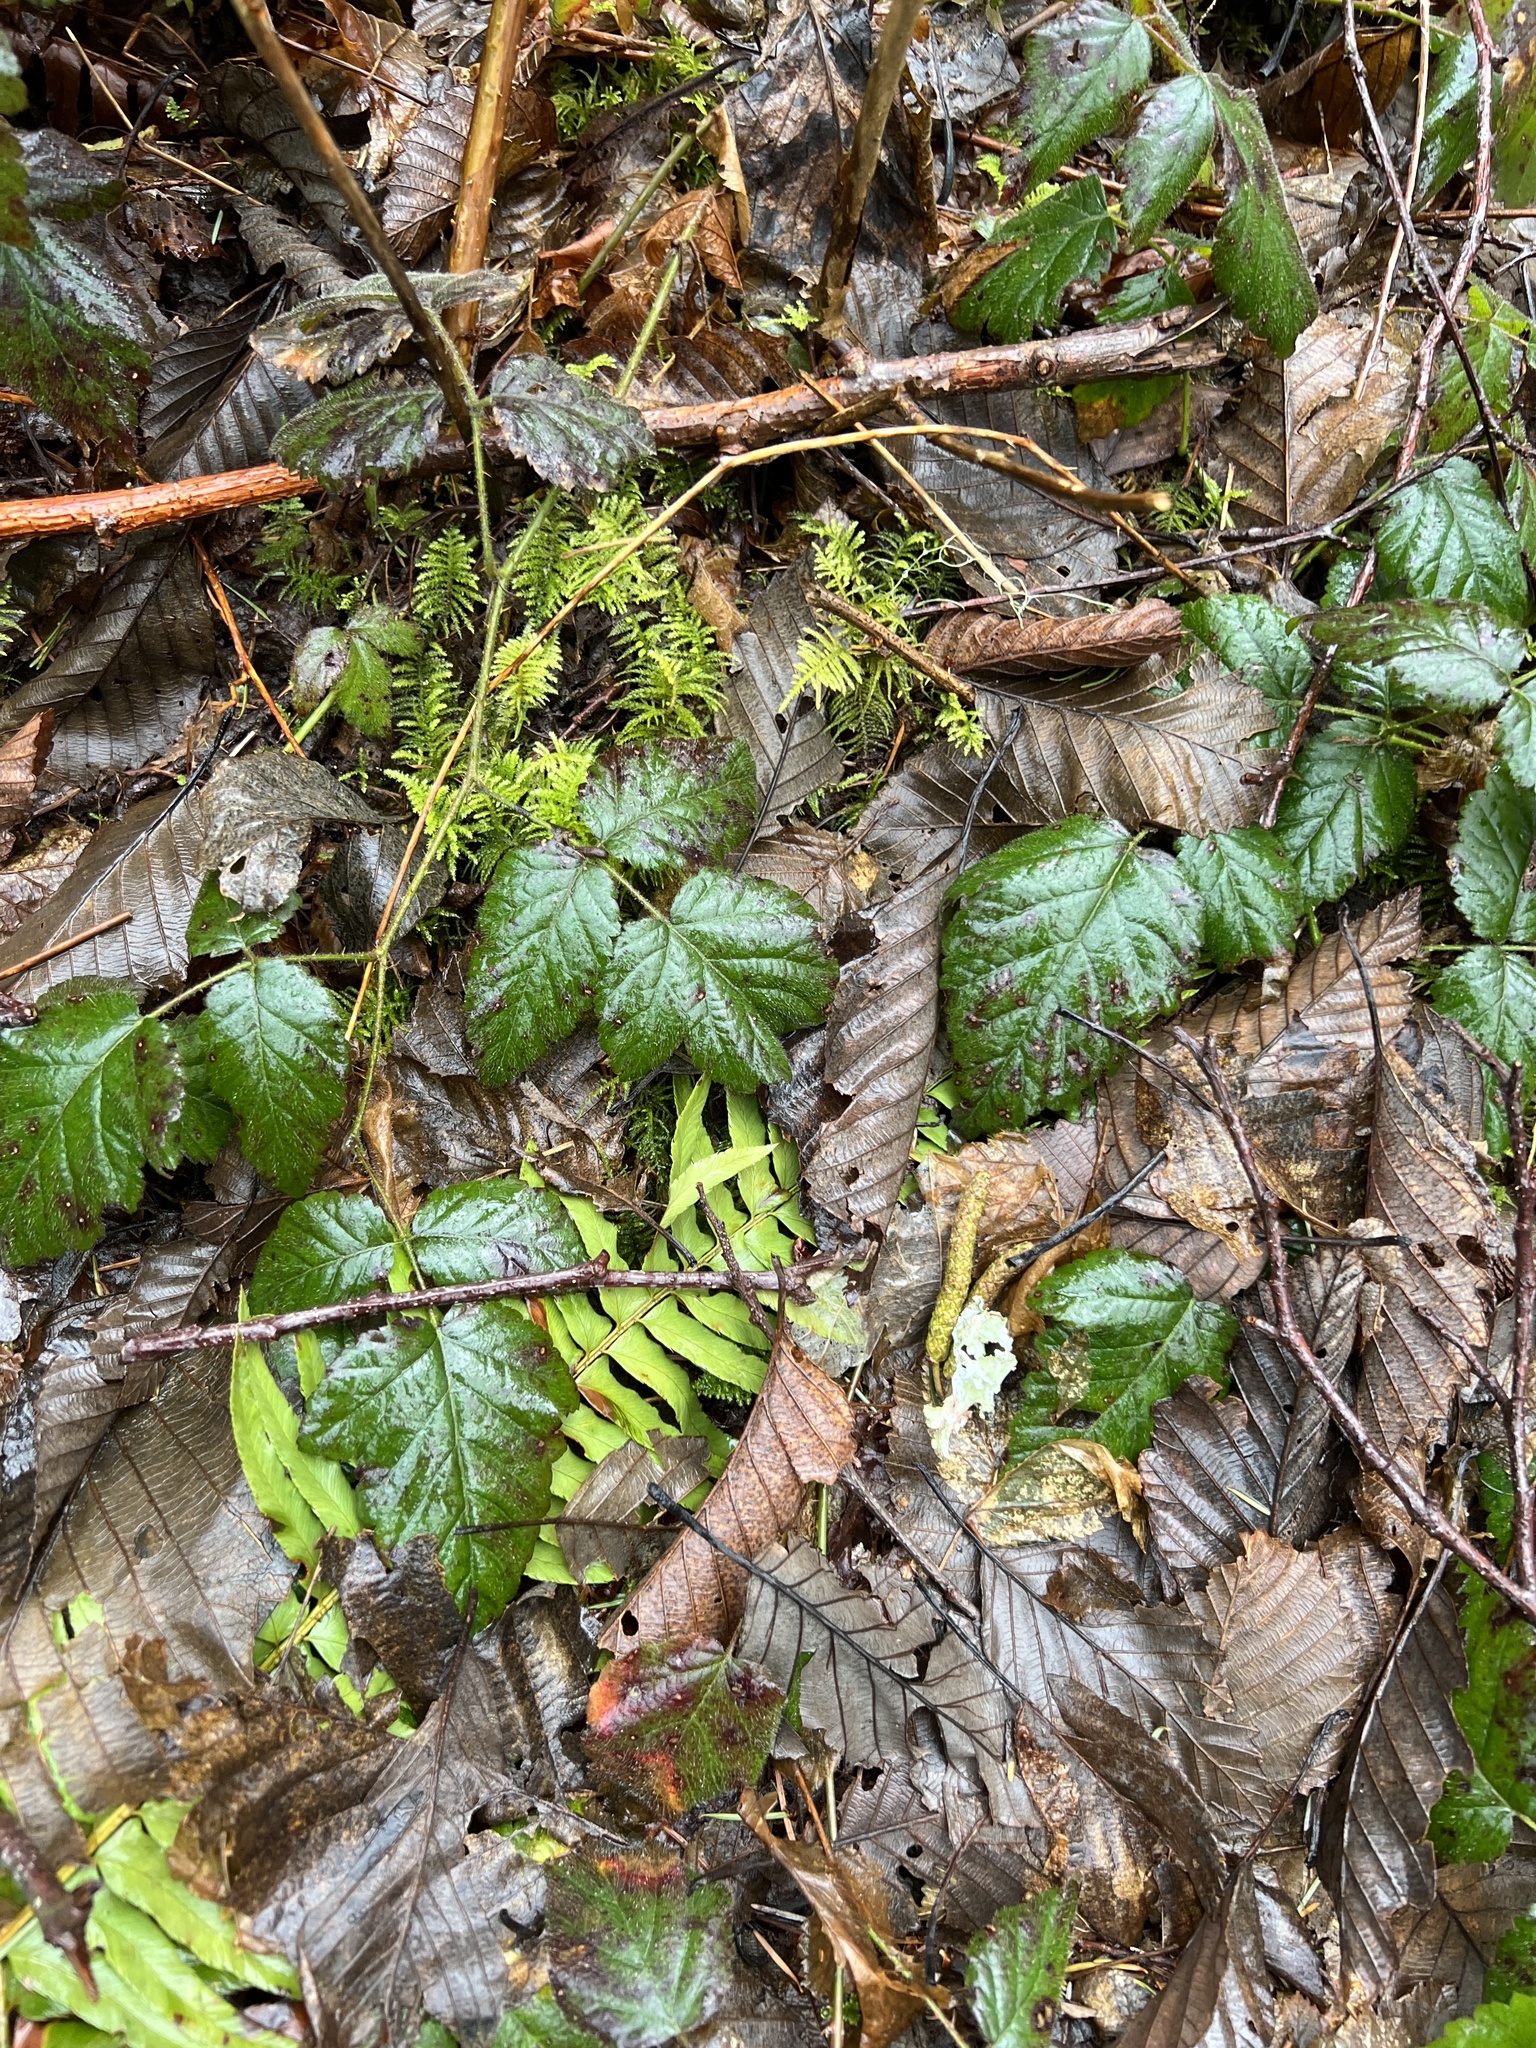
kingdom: Plantae
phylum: Tracheophyta
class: Magnoliopsida
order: Rosales
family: Rosaceae
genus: Rubus
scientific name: Rubus ursinus
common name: Pacific blackberry
